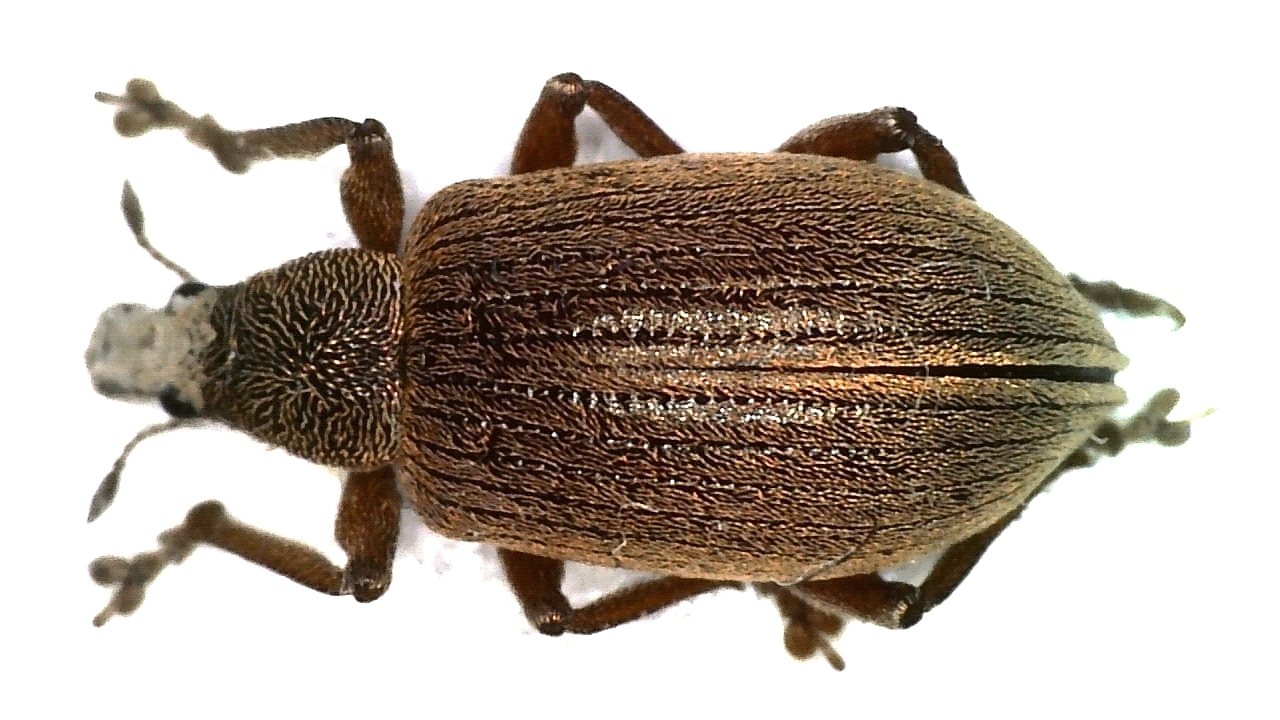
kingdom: Animalia
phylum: Arthropoda
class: Insecta
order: Coleoptera
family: Curculionidae
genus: Polydrusus
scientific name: Polydrusus mollis
